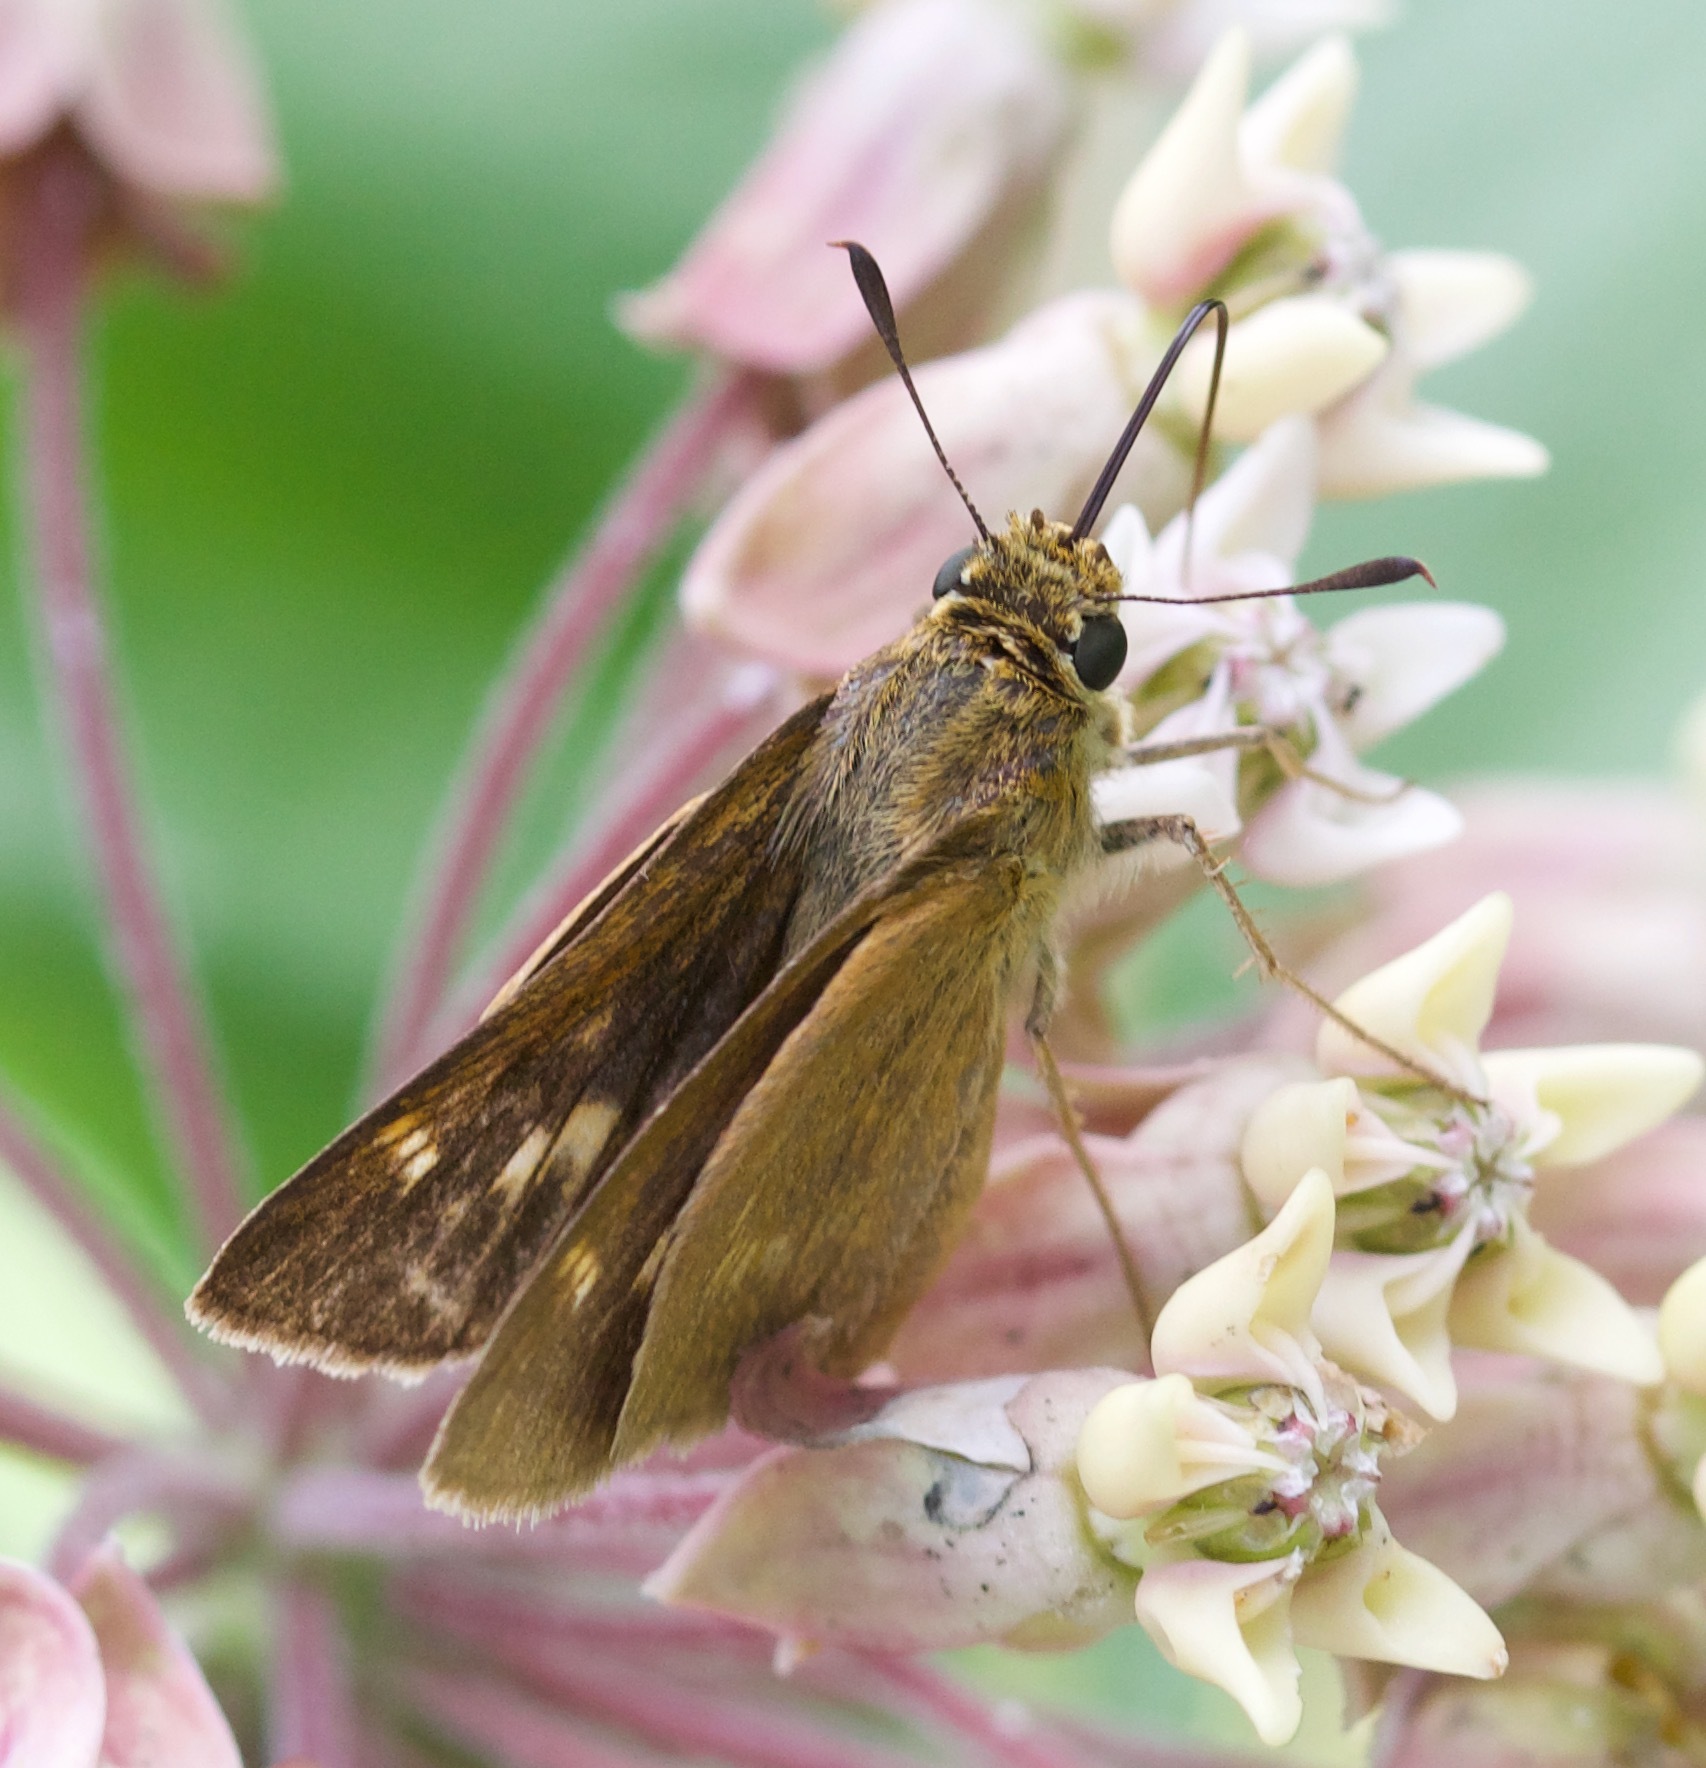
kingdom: Animalia
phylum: Arthropoda
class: Insecta
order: Lepidoptera
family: Hesperiidae
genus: Polites
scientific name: Polites origenes
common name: Crossline skipper
